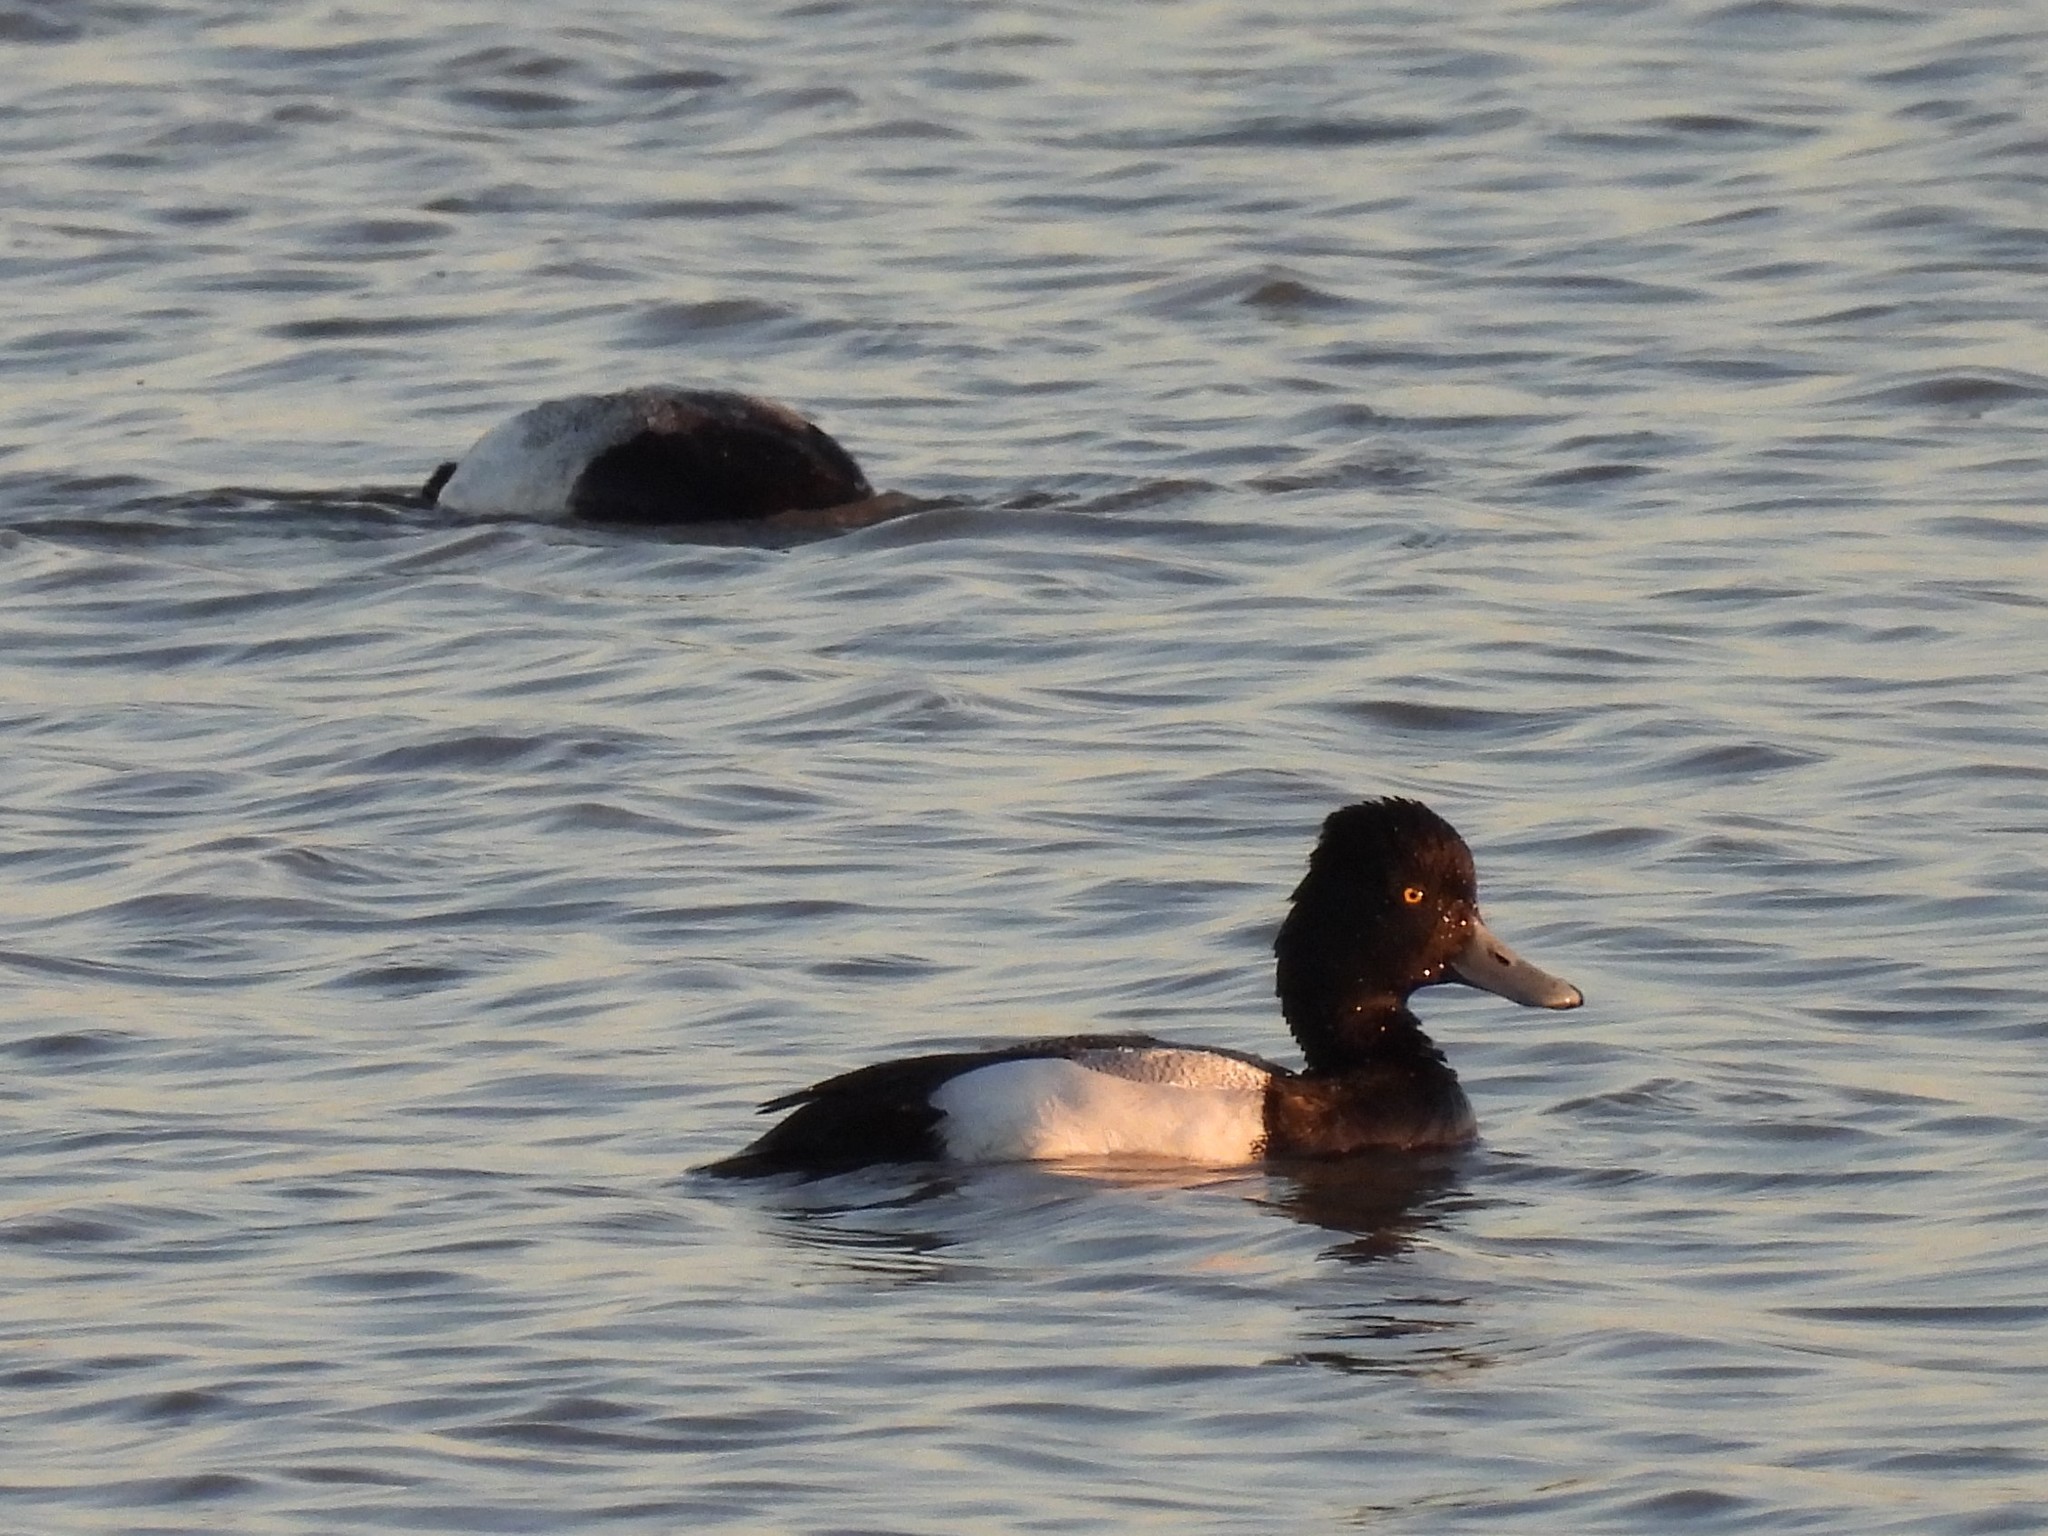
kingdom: Animalia
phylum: Chordata
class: Aves
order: Anseriformes
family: Anatidae
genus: Aythya
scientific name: Aythya affinis
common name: Lesser scaup
